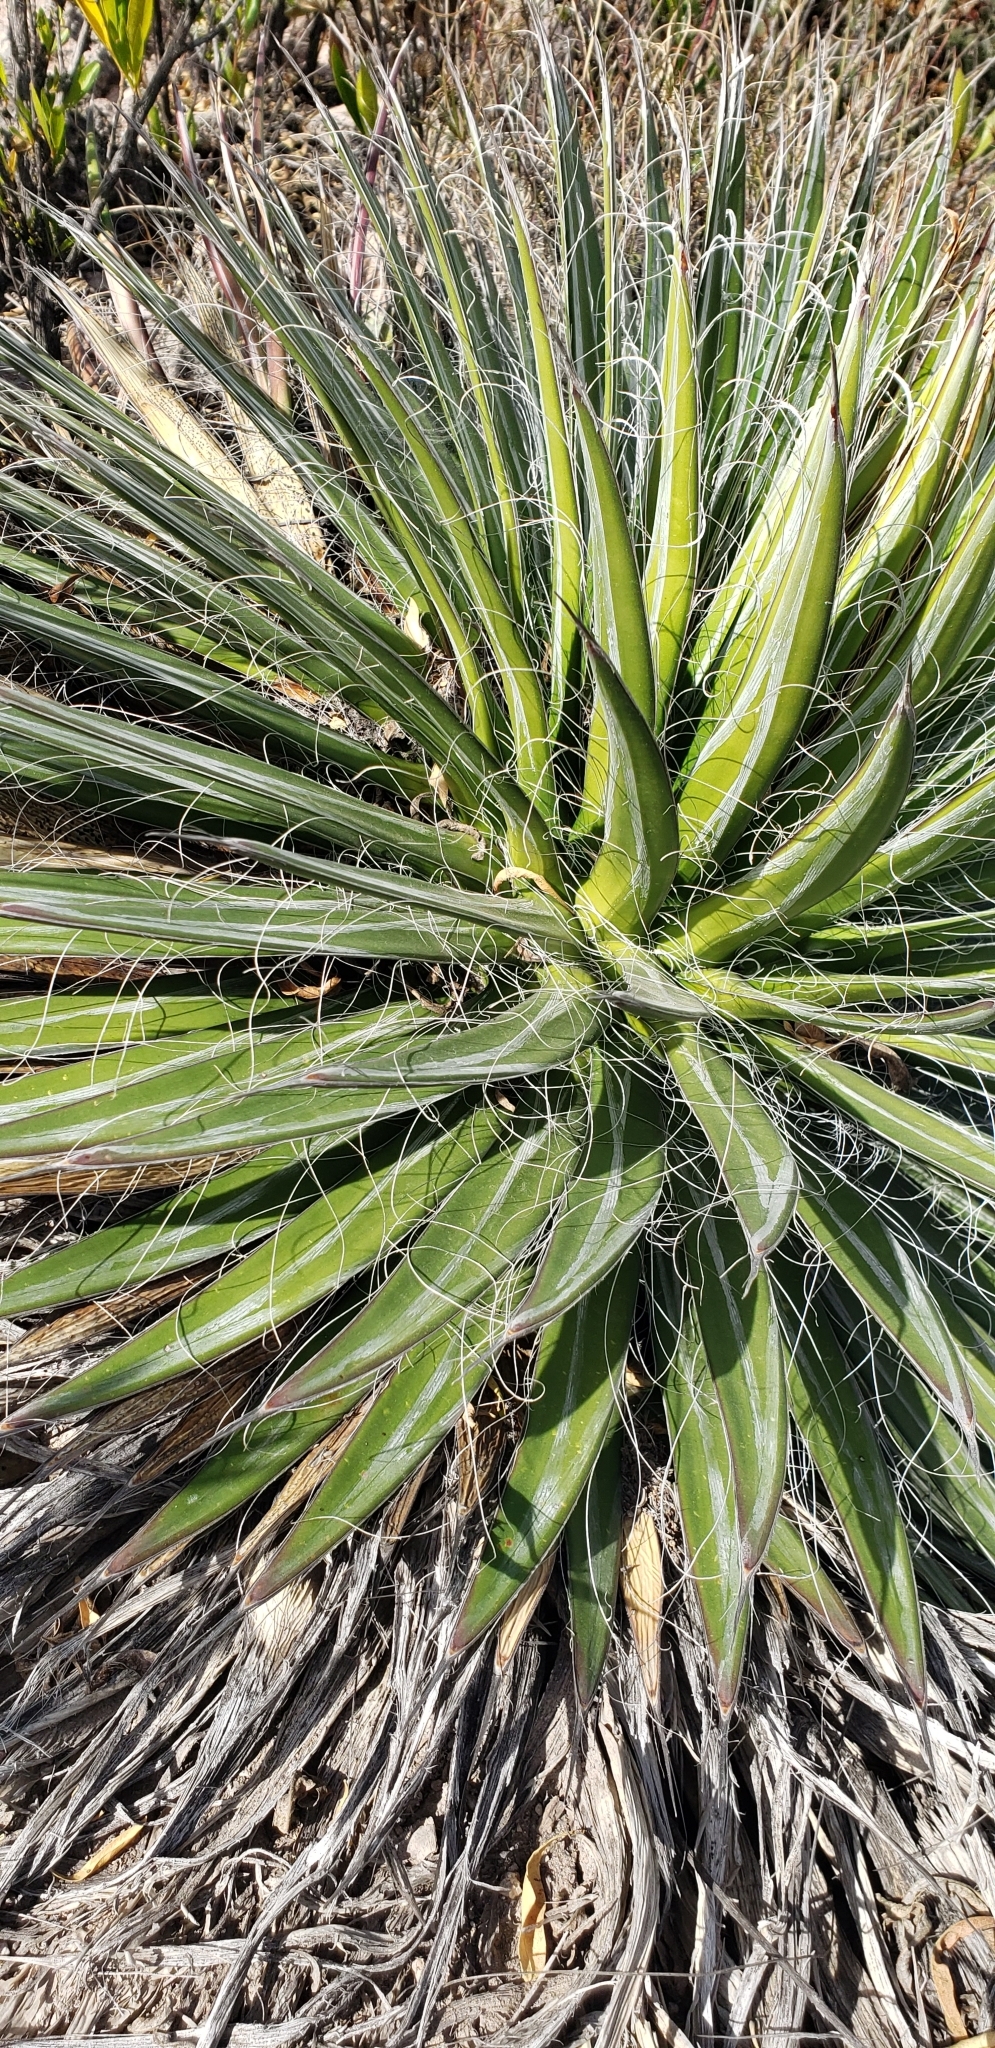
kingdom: Plantae
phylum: Tracheophyta
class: Liliopsida
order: Asparagales
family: Asparagaceae
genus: Agave
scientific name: Agave filifera
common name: Thread agave
